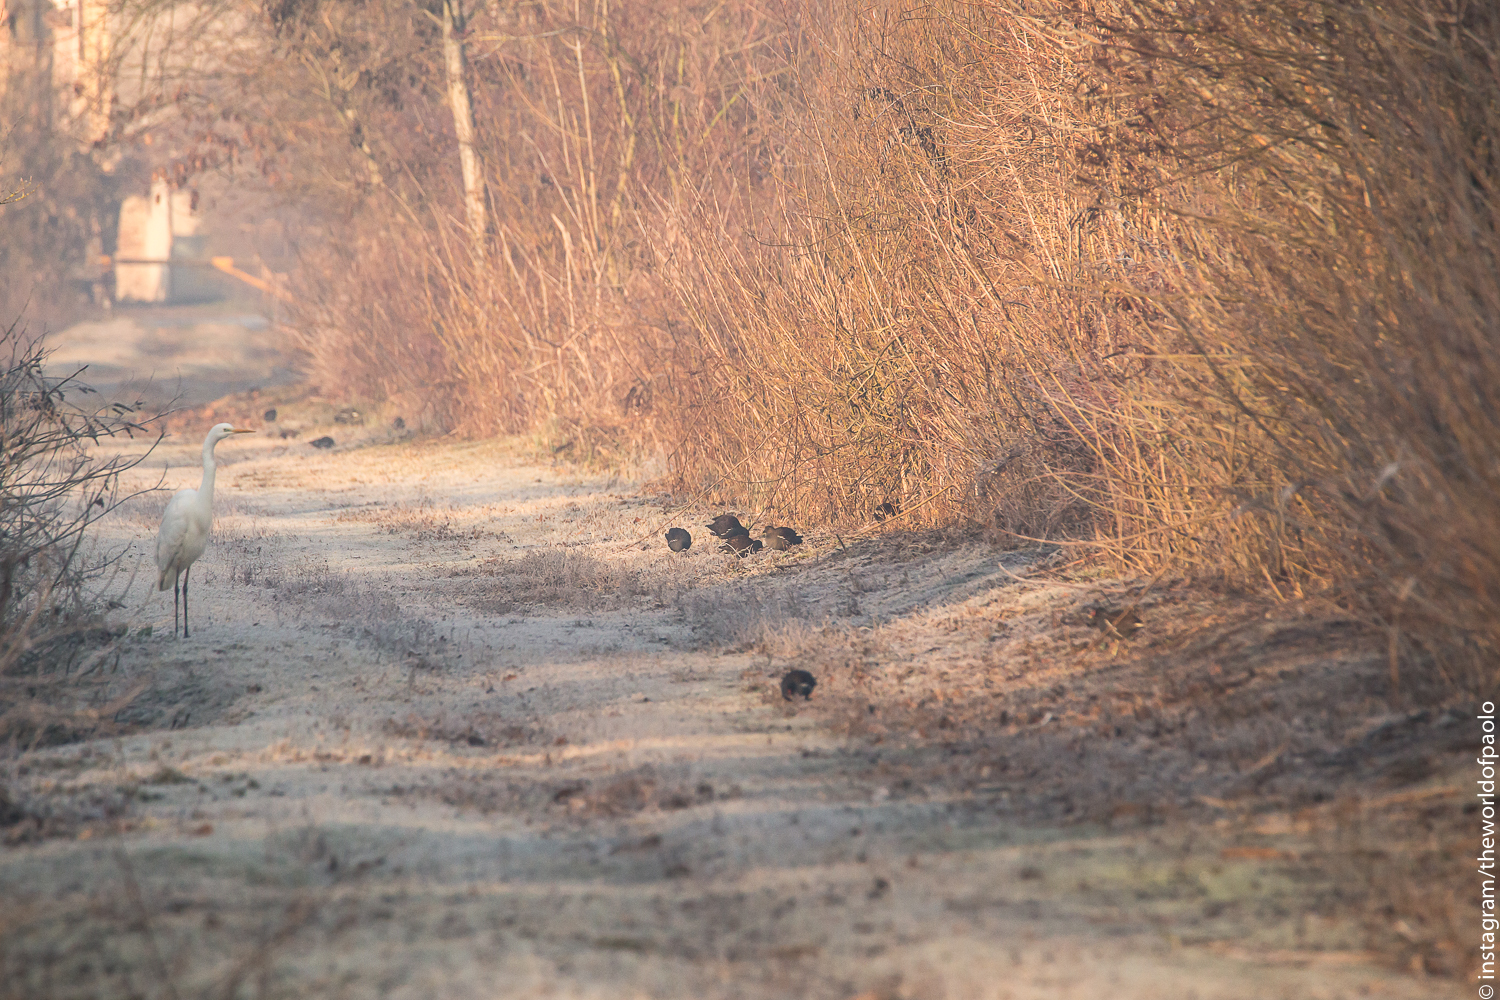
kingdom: Animalia
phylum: Chordata
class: Aves
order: Pelecaniformes
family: Ardeidae
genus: Ardea
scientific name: Ardea alba
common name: Great egret
